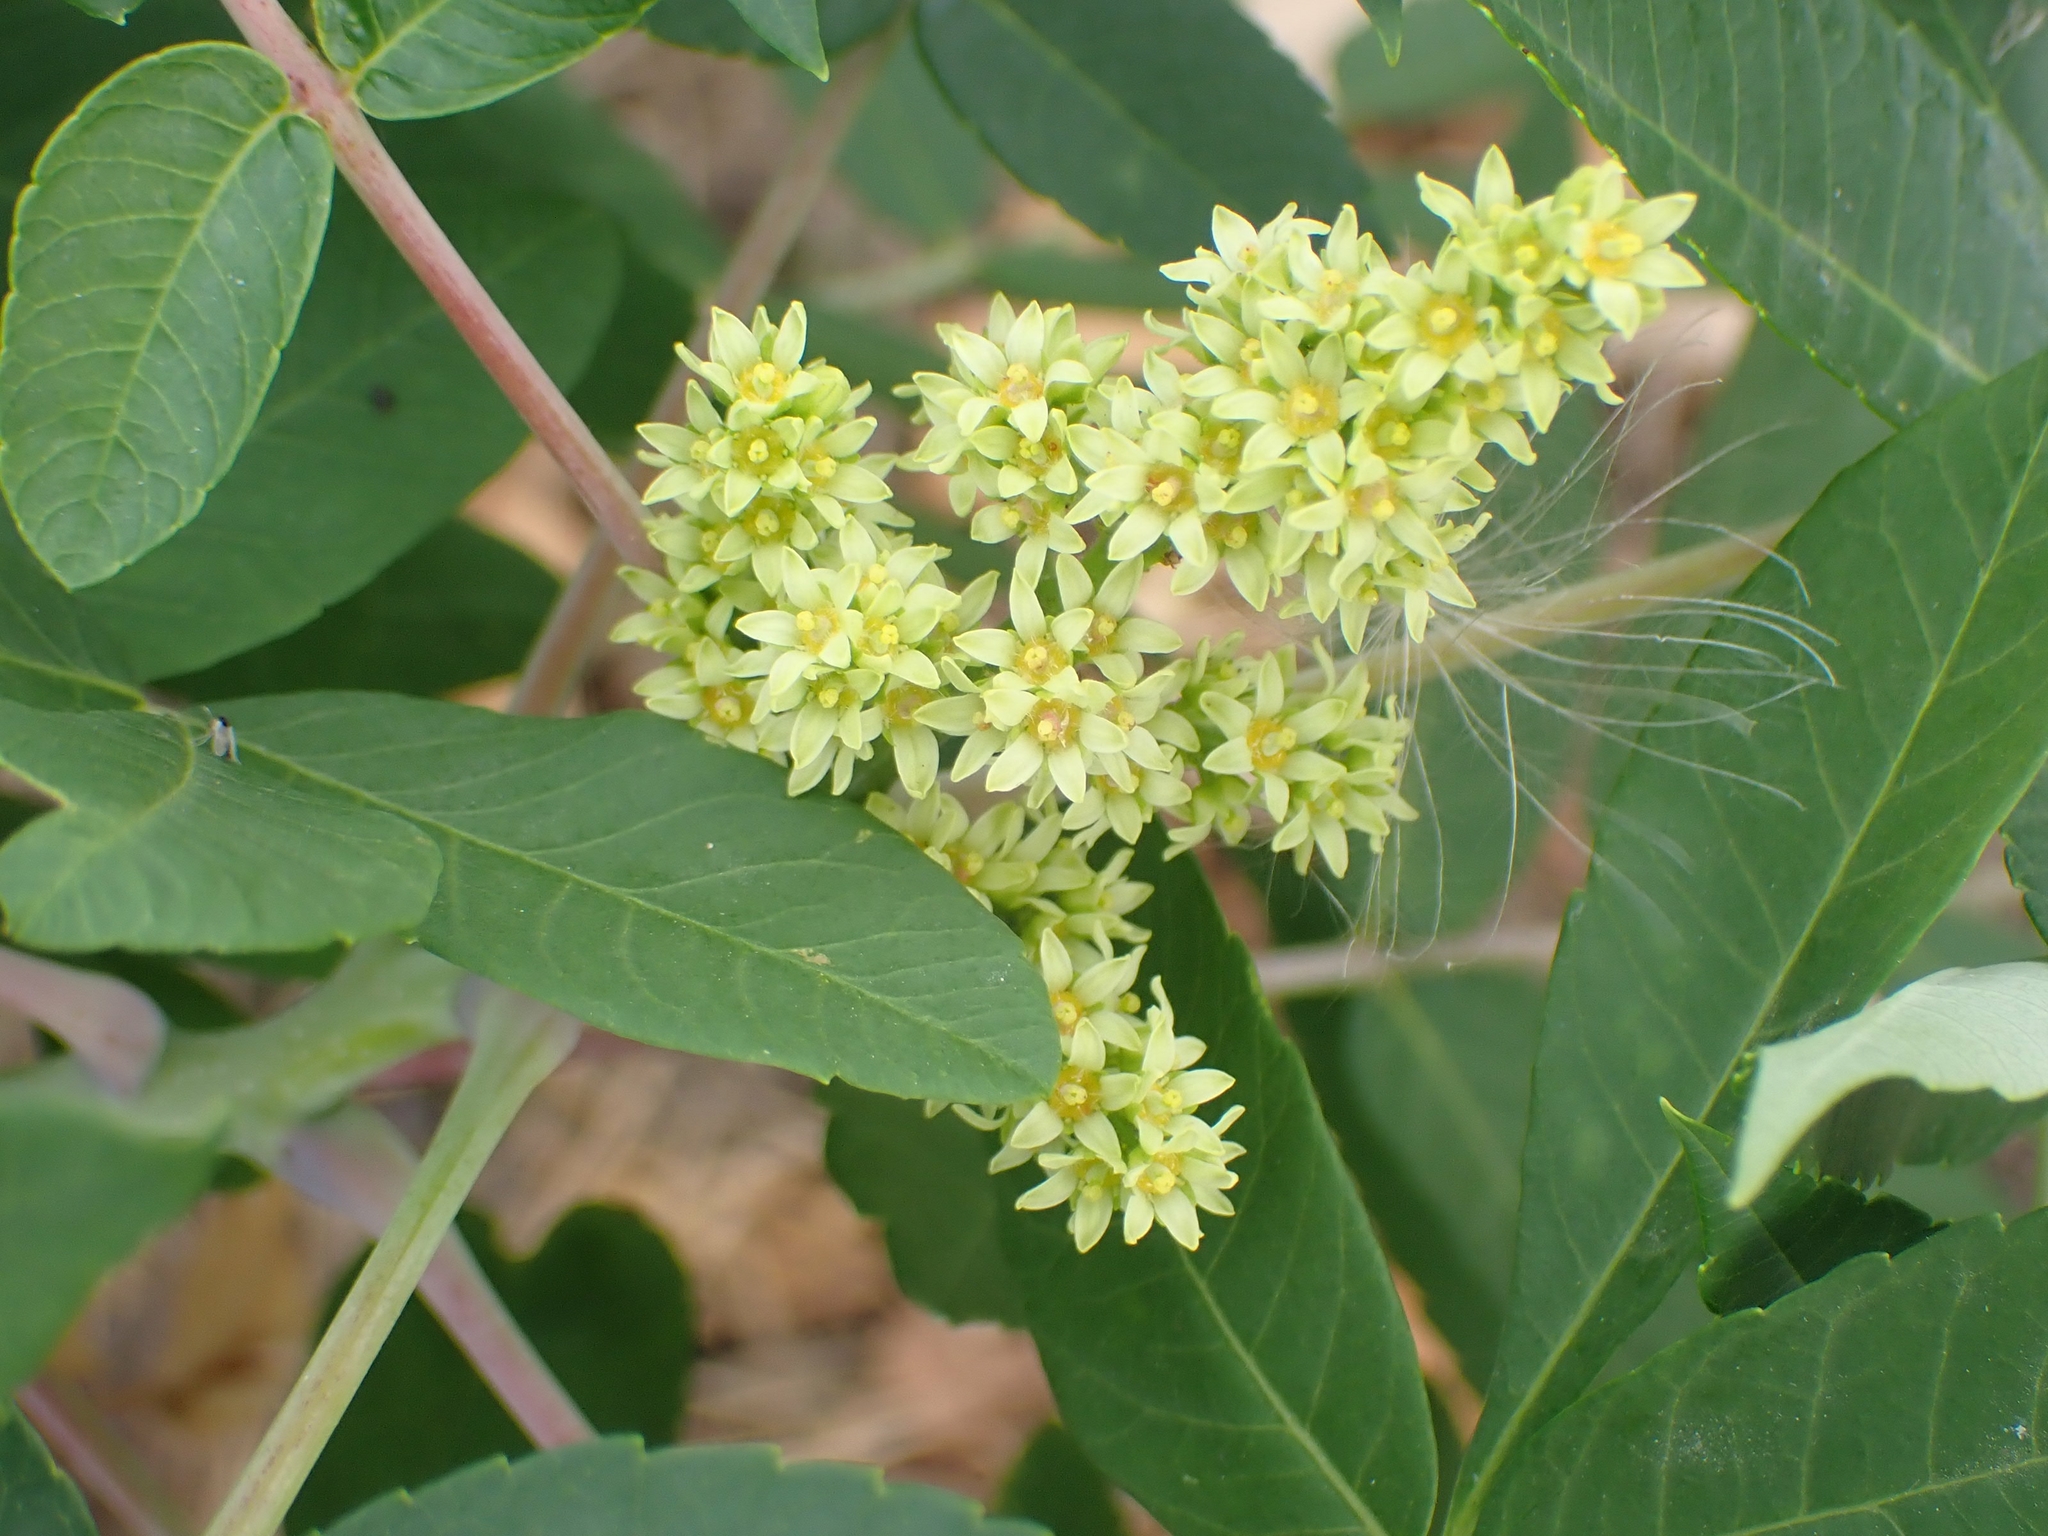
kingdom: Plantae
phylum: Tracheophyta
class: Magnoliopsida
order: Sapindales
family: Anacardiaceae
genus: Rhus
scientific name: Rhus glabra
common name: Scarlet sumac
